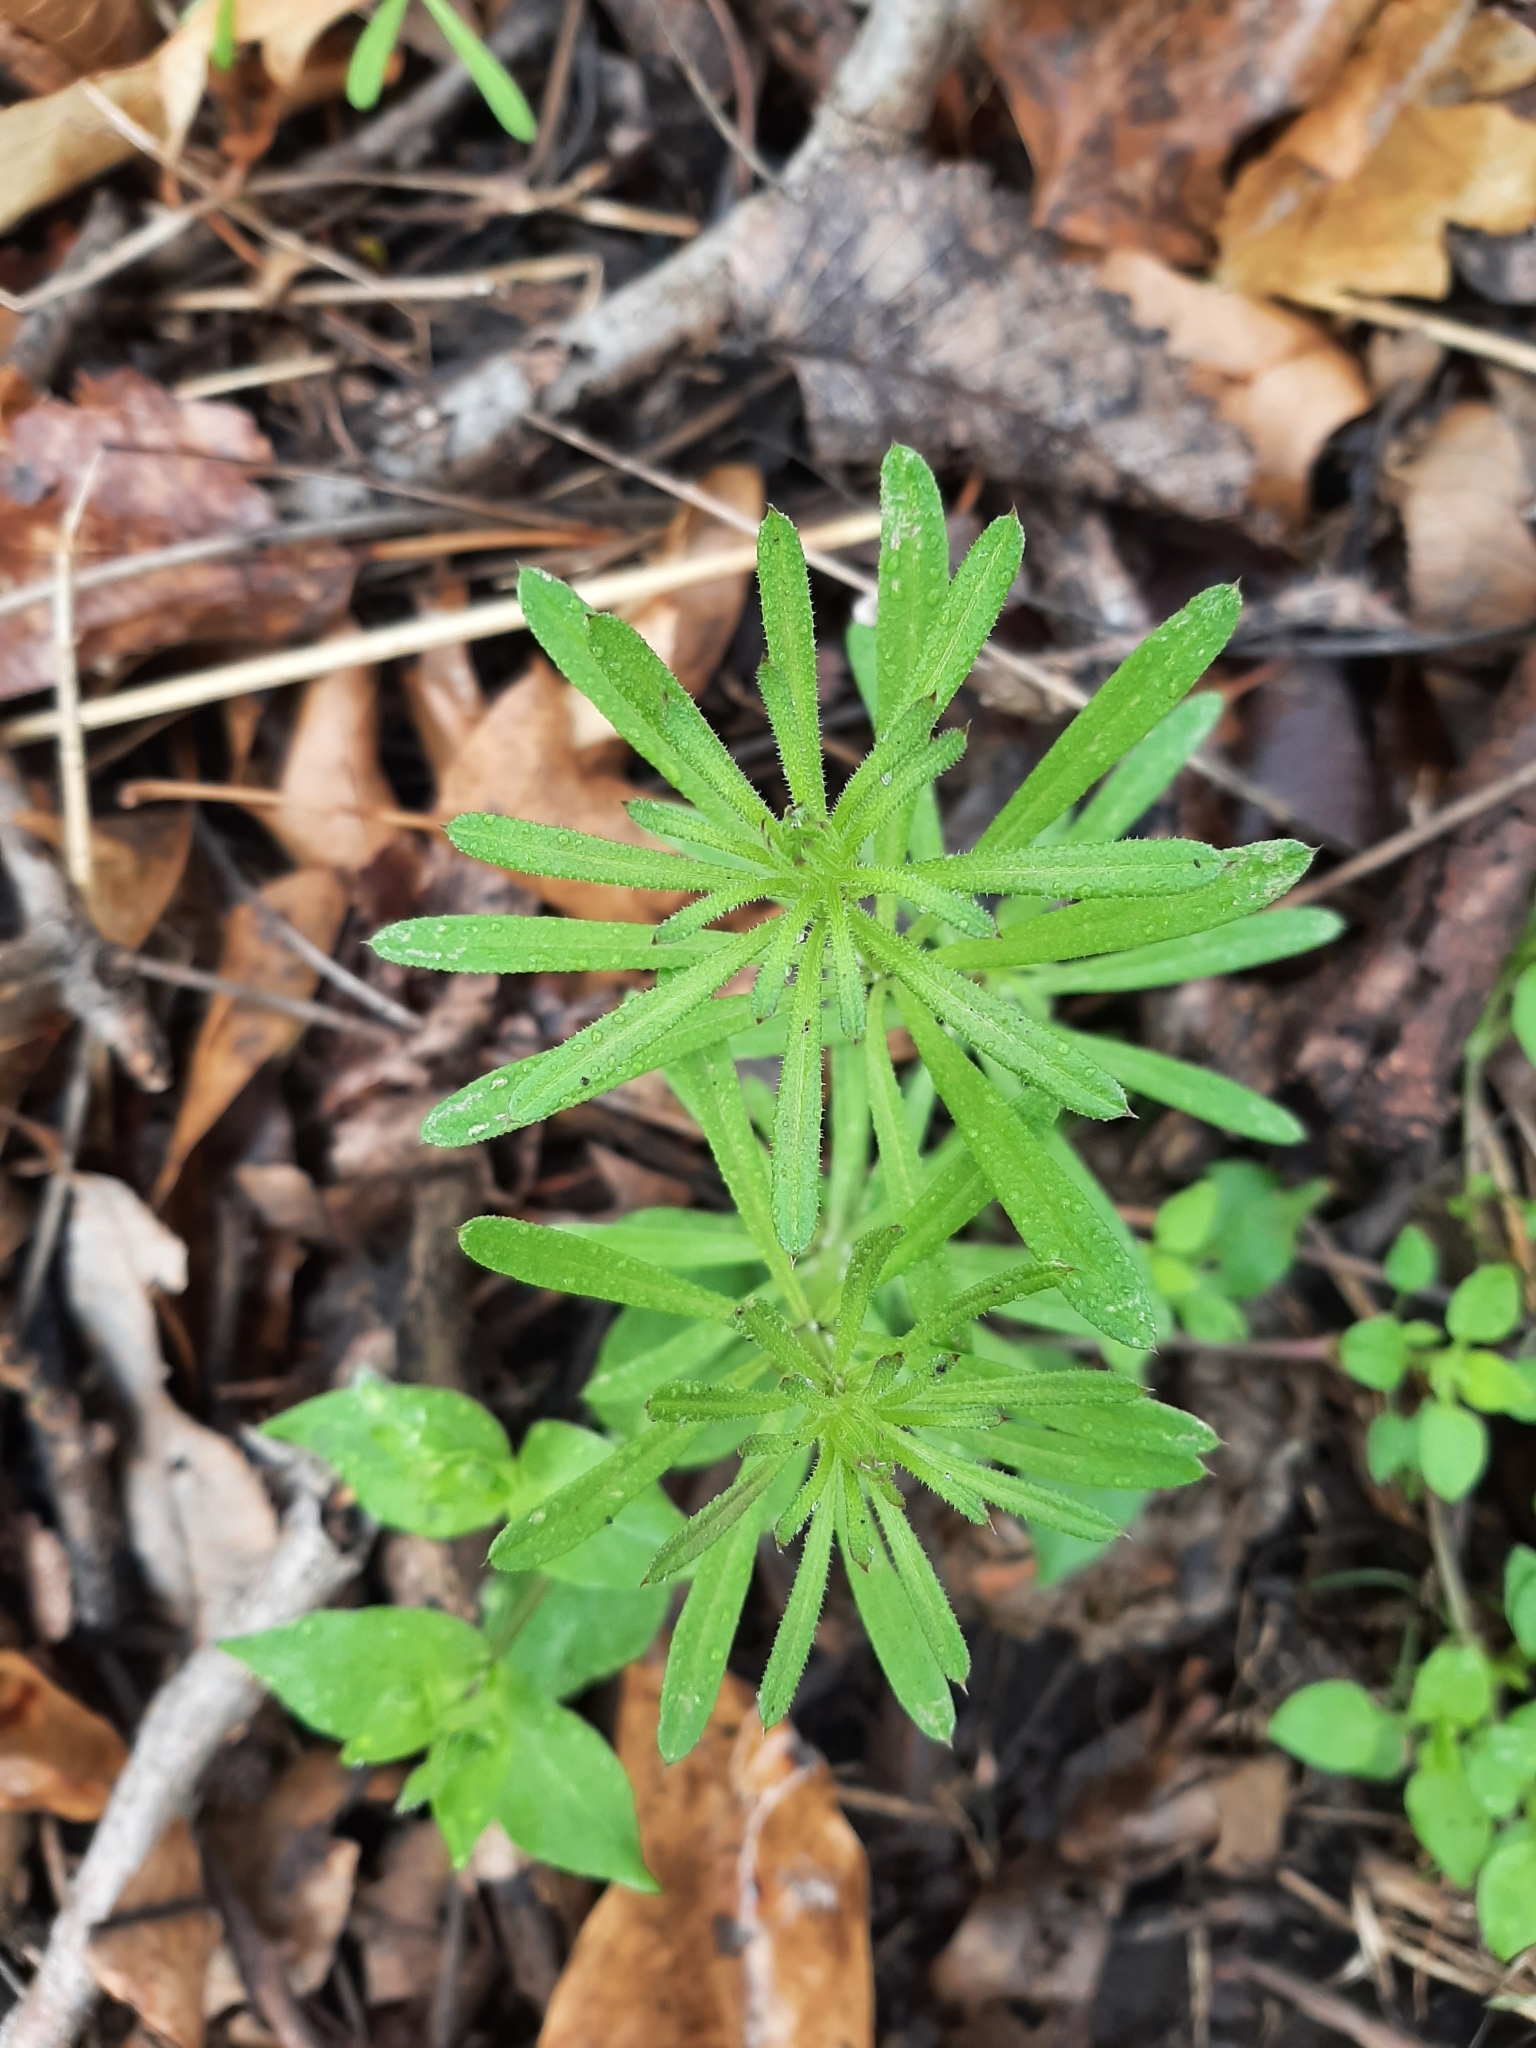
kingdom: Plantae
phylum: Tracheophyta
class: Magnoliopsida
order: Gentianales
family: Rubiaceae
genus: Galium
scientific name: Galium aparine
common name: Cleavers
